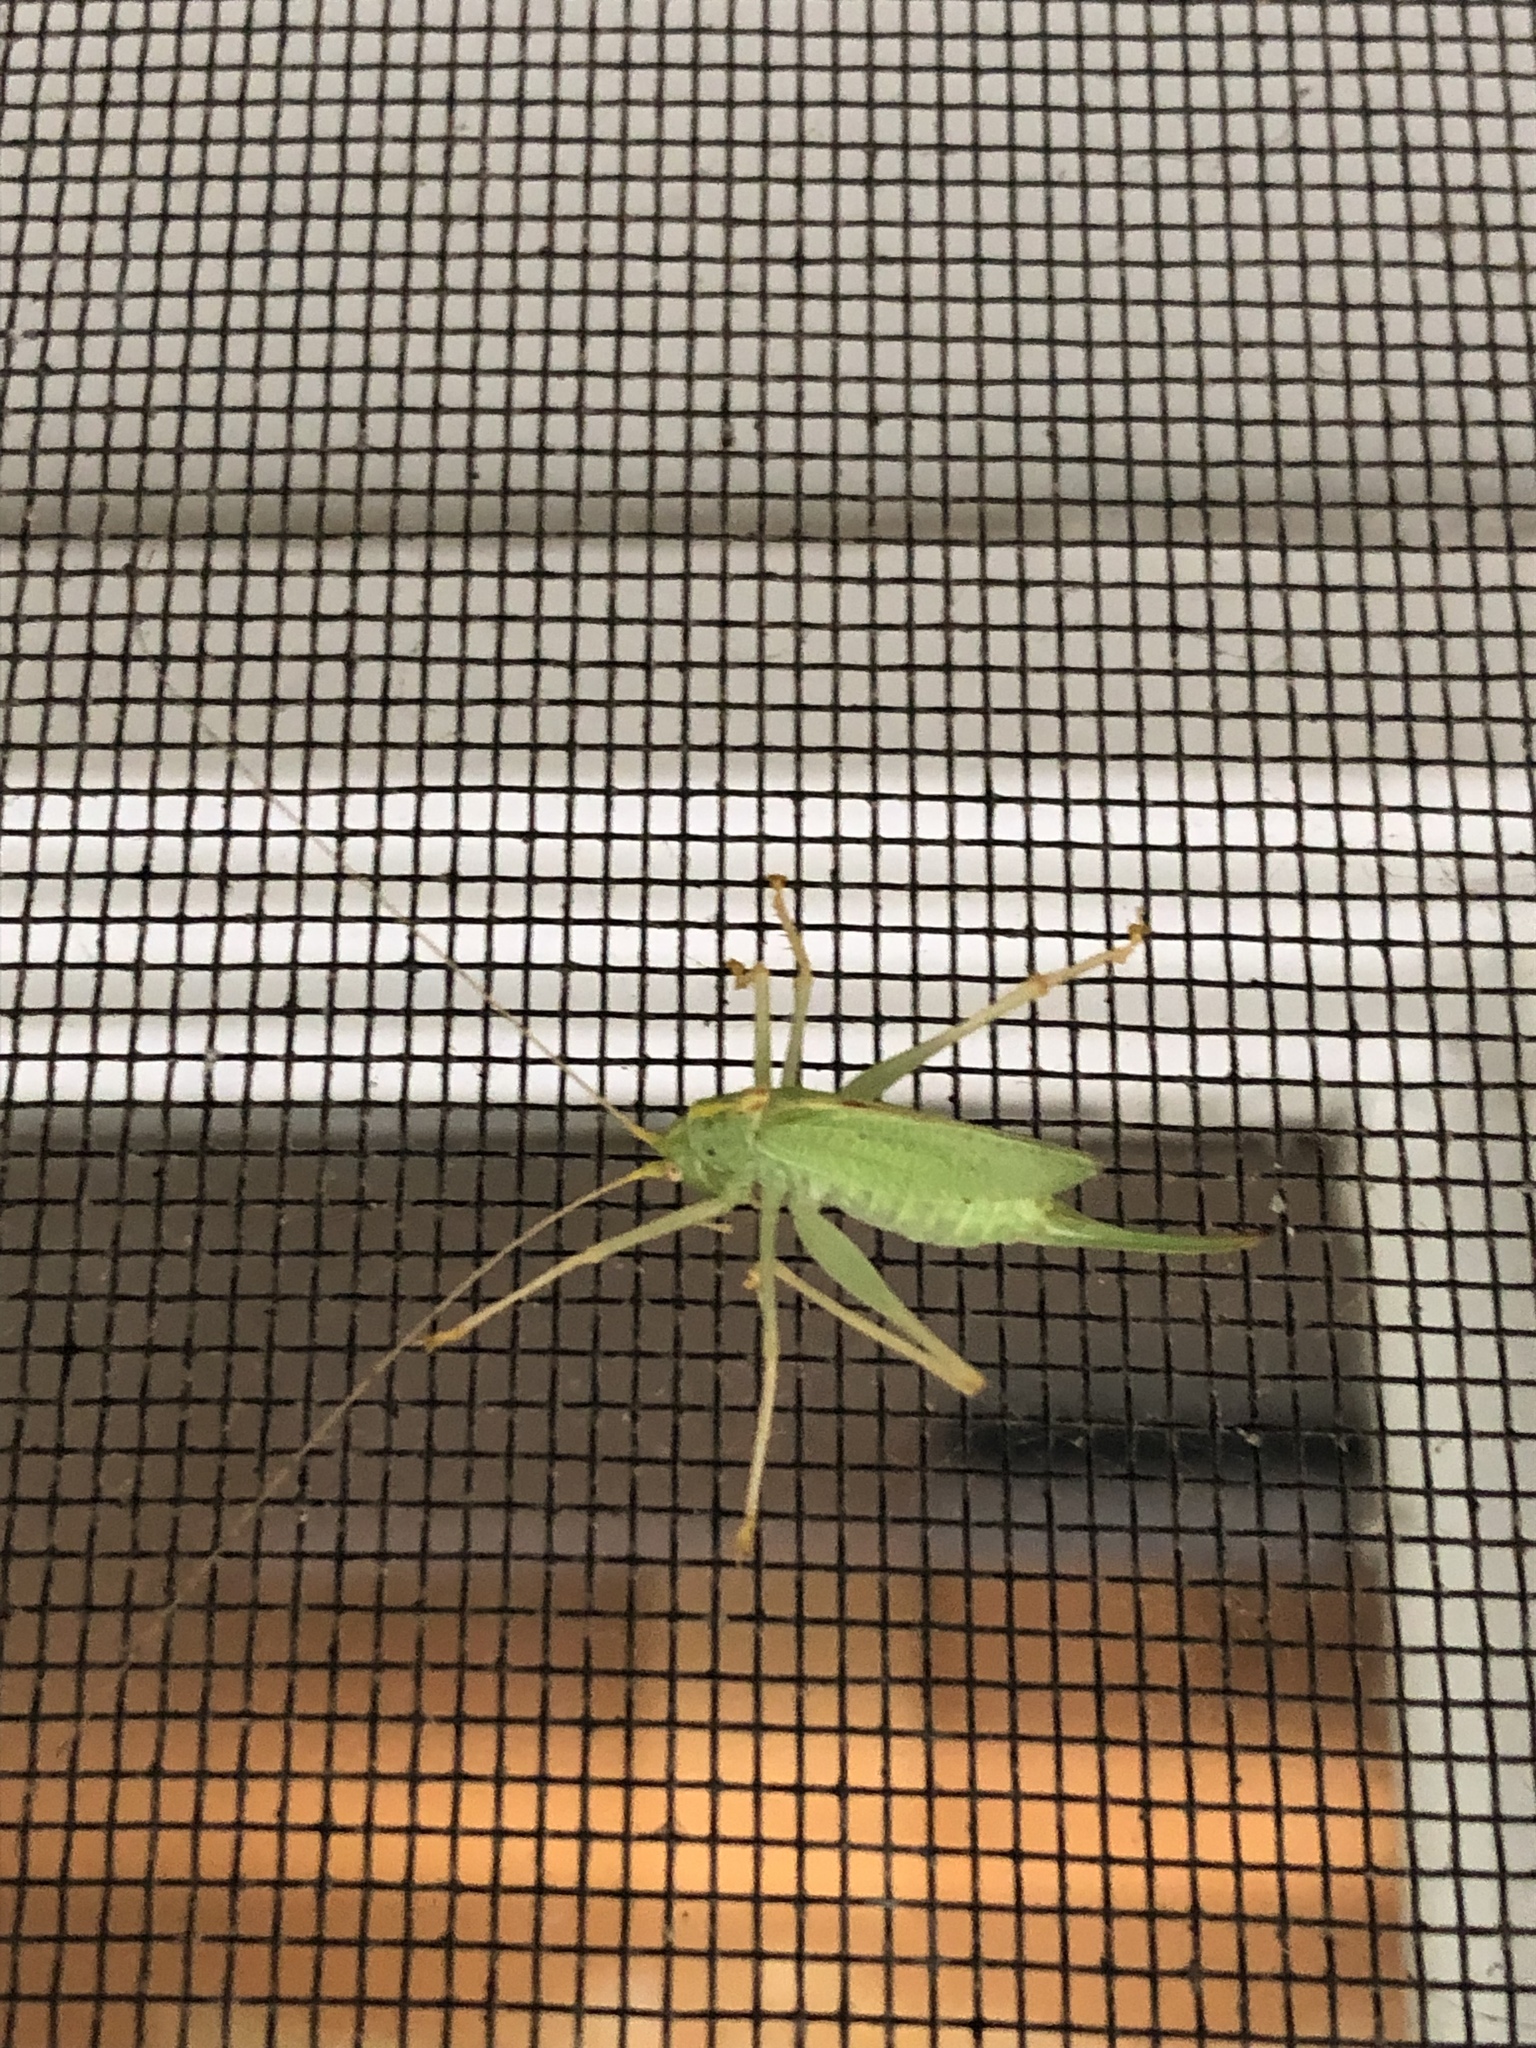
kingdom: Animalia
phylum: Arthropoda
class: Insecta
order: Orthoptera
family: Tettigoniidae
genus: Meconema
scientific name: Meconema thalassinum
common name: Oak bush-cricket
